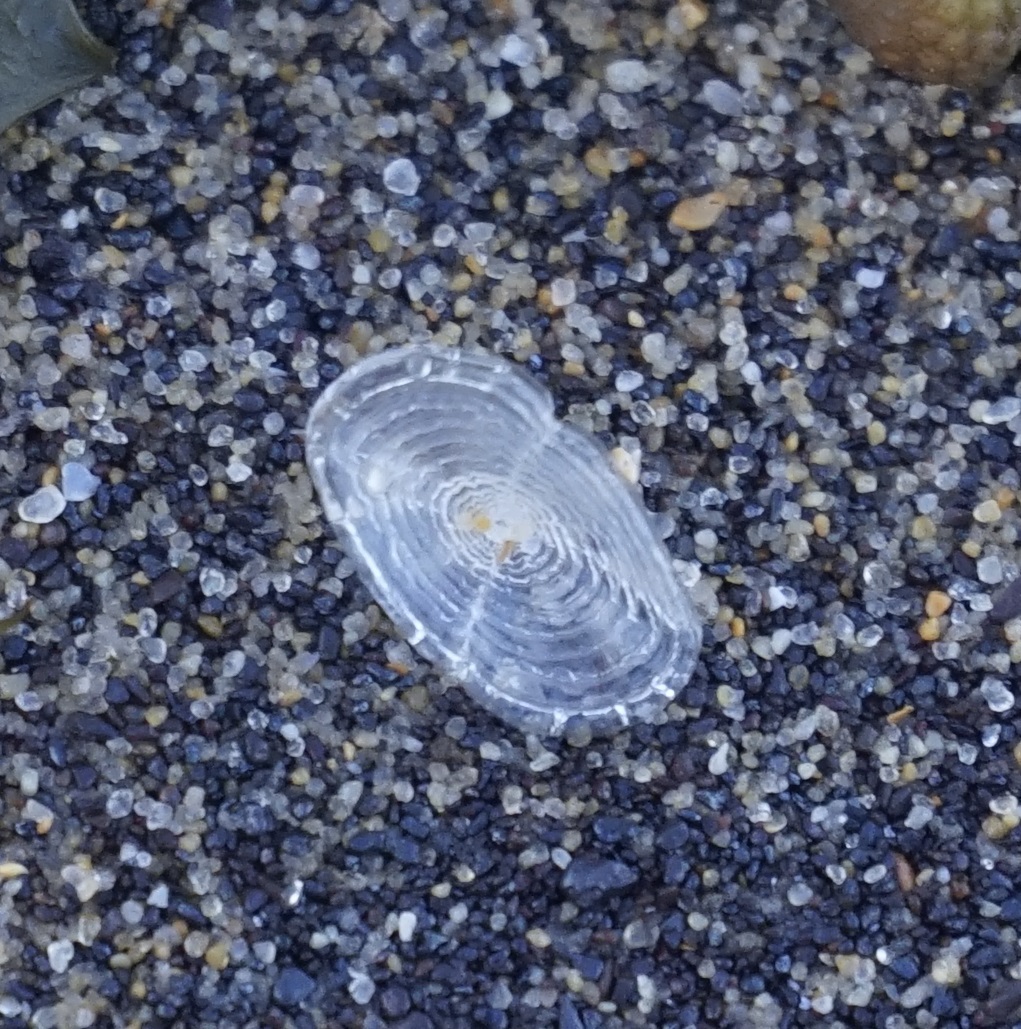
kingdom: Animalia
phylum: Cnidaria
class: Hydrozoa
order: Anthoathecata
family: Porpitidae
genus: Velella
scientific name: Velella velella
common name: By-the-wind-sailor
